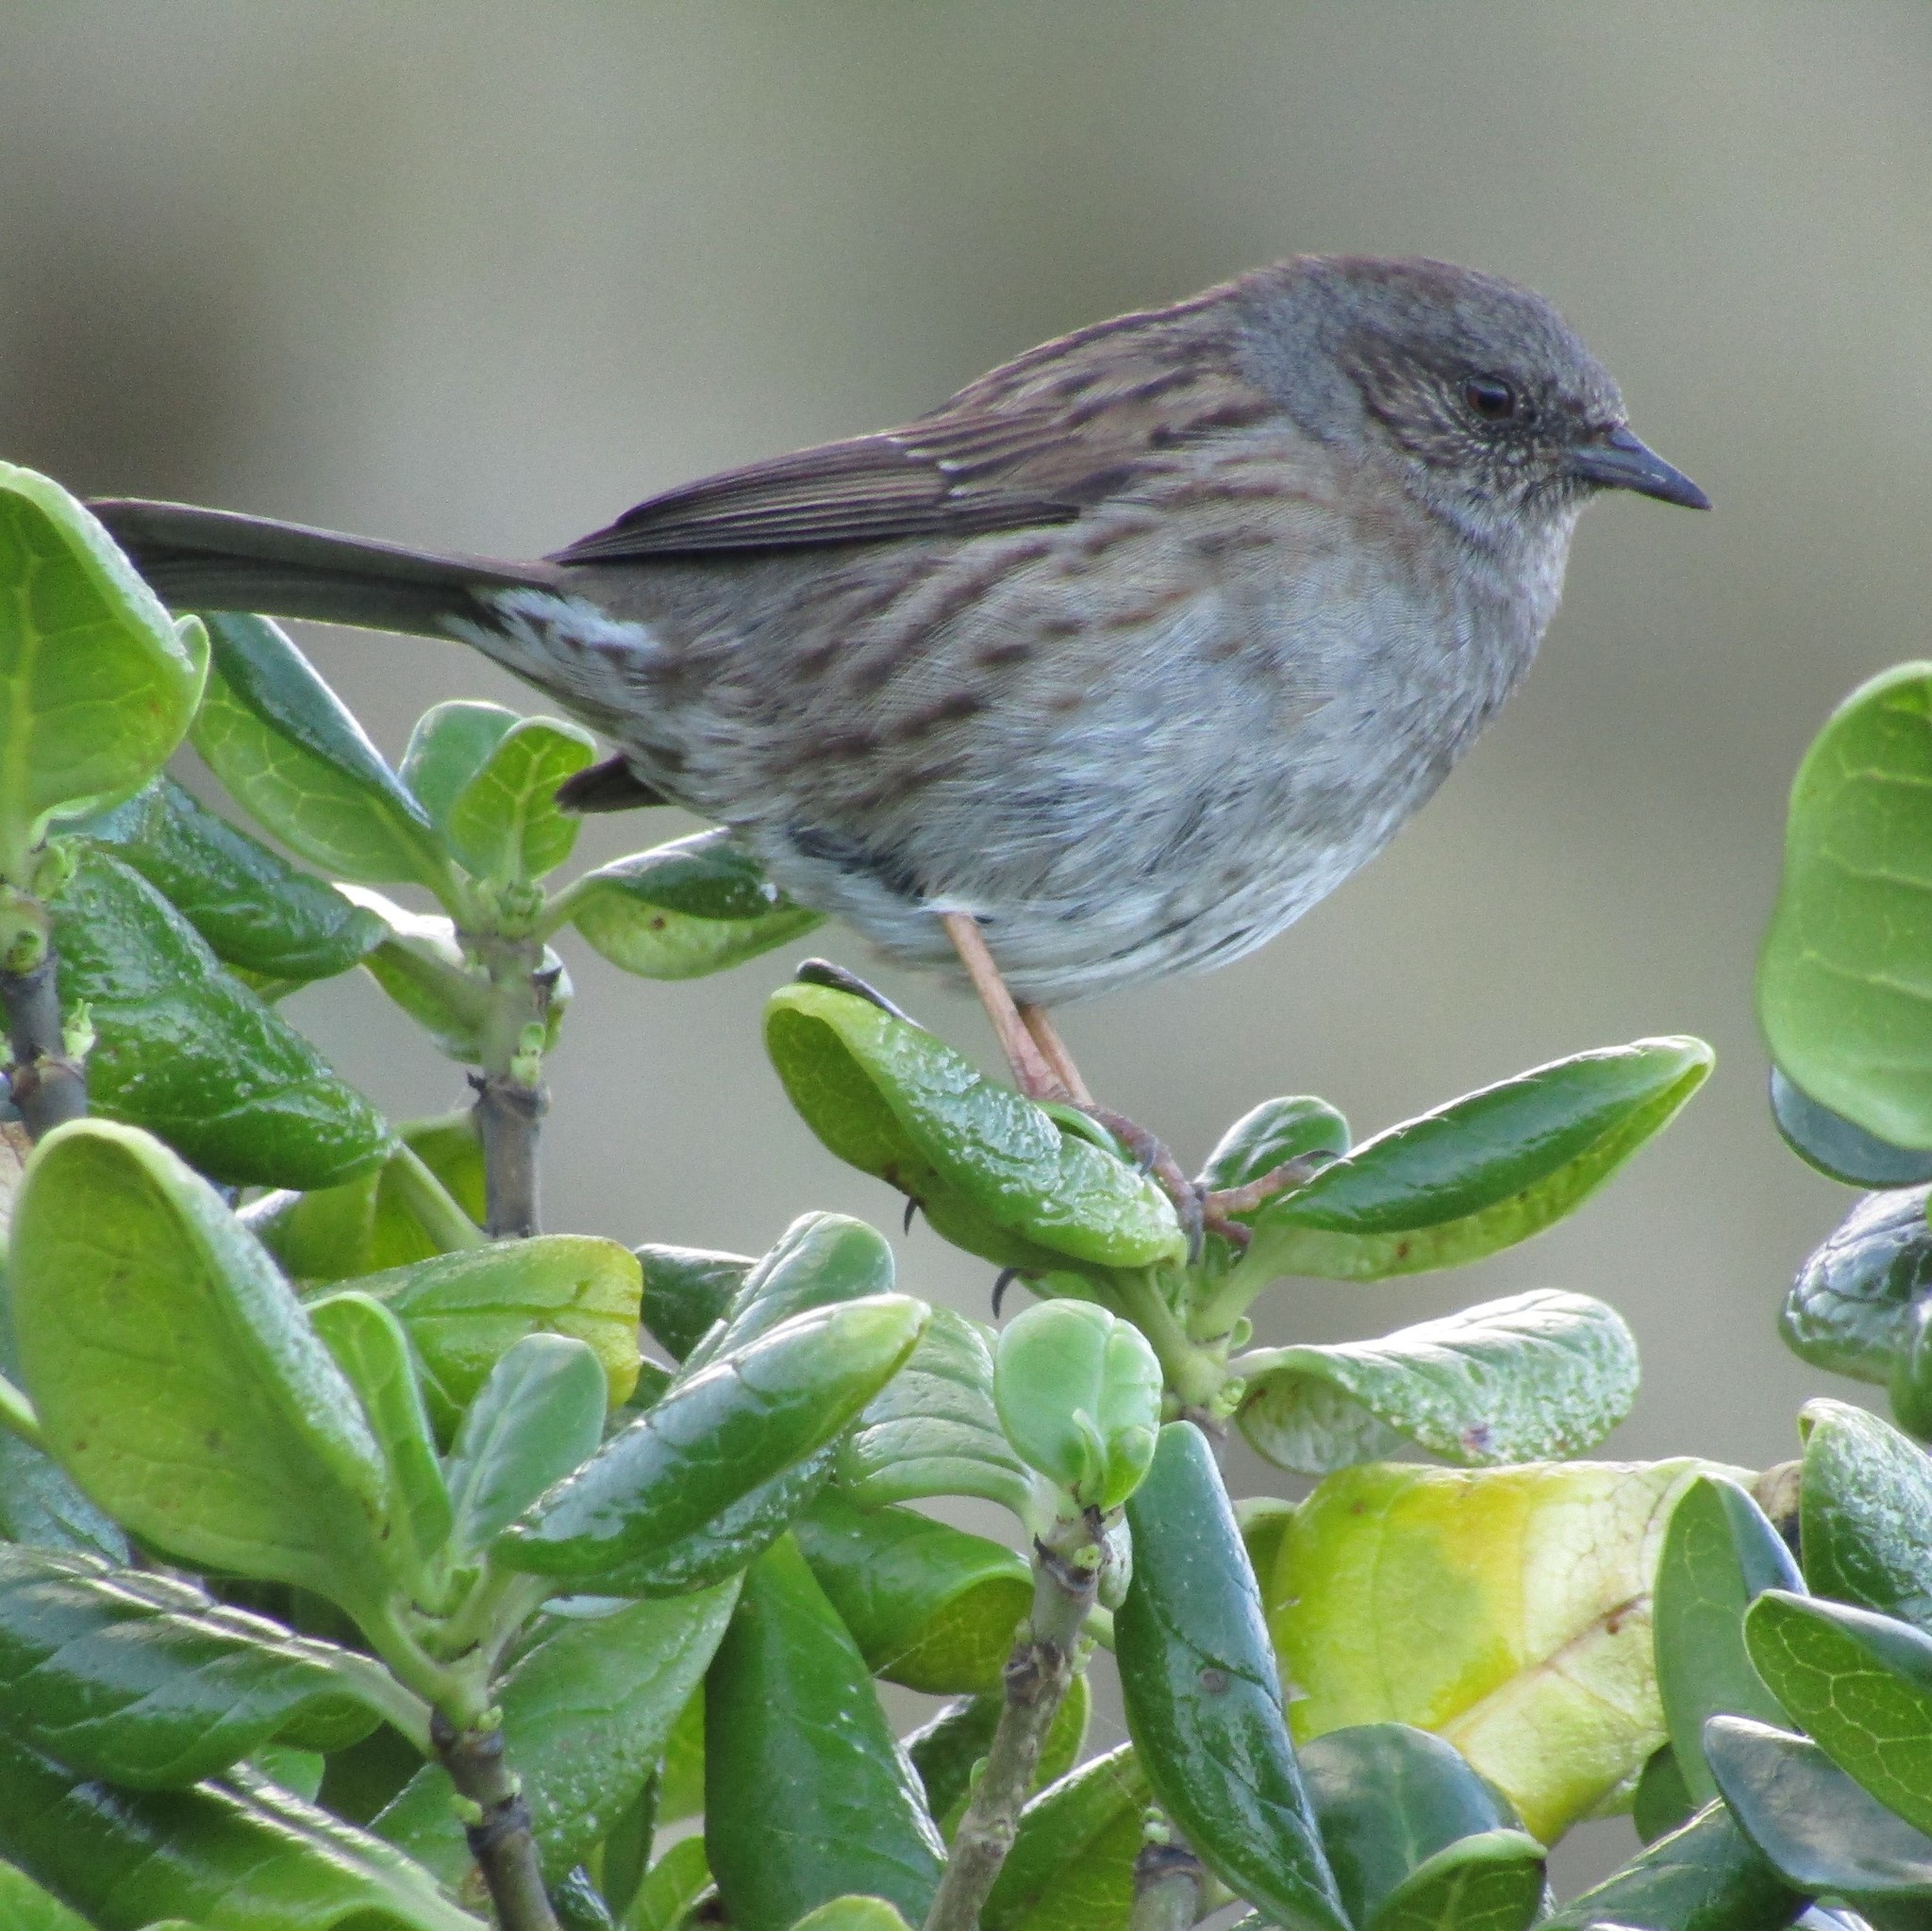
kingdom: Animalia
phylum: Chordata
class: Aves
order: Passeriformes
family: Prunellidae
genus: Prunella
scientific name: Prunella modularis
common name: Dunnock
